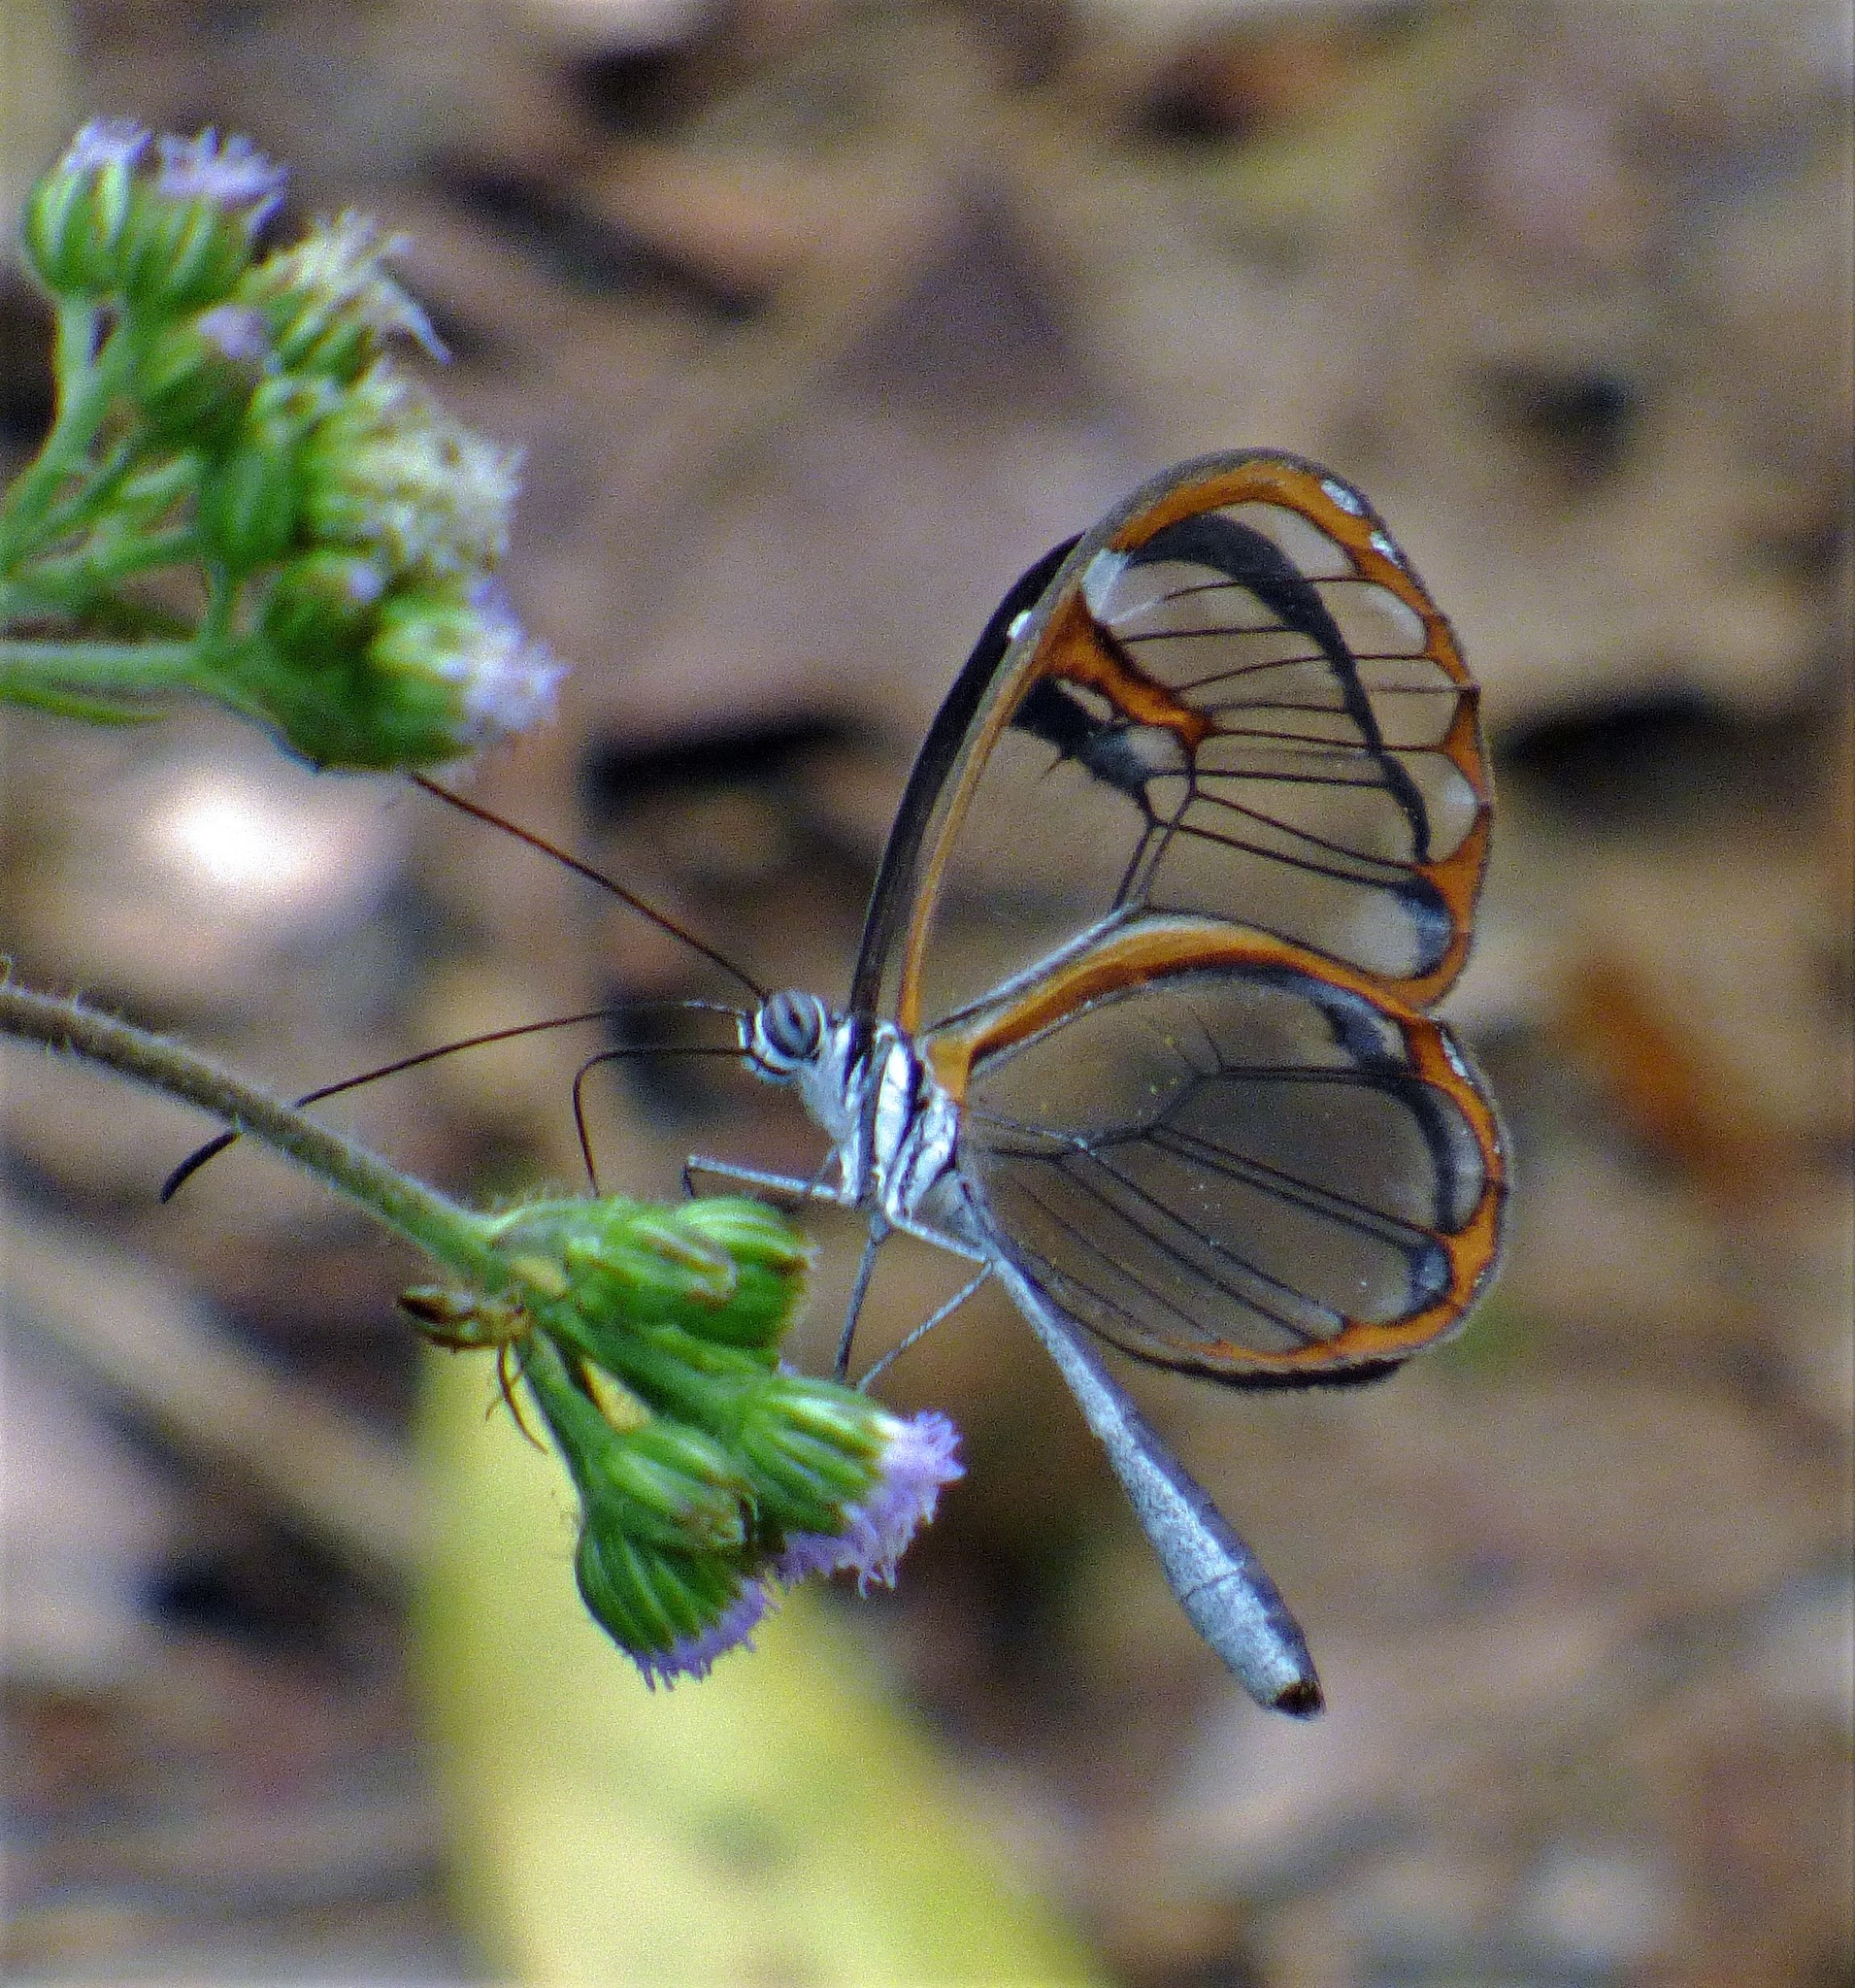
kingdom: Animalia
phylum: Arthropoda
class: Insecta
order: Lepidoptera
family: Nymphalidae
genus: Pseudoscada
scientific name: Pseudoscada erruca
